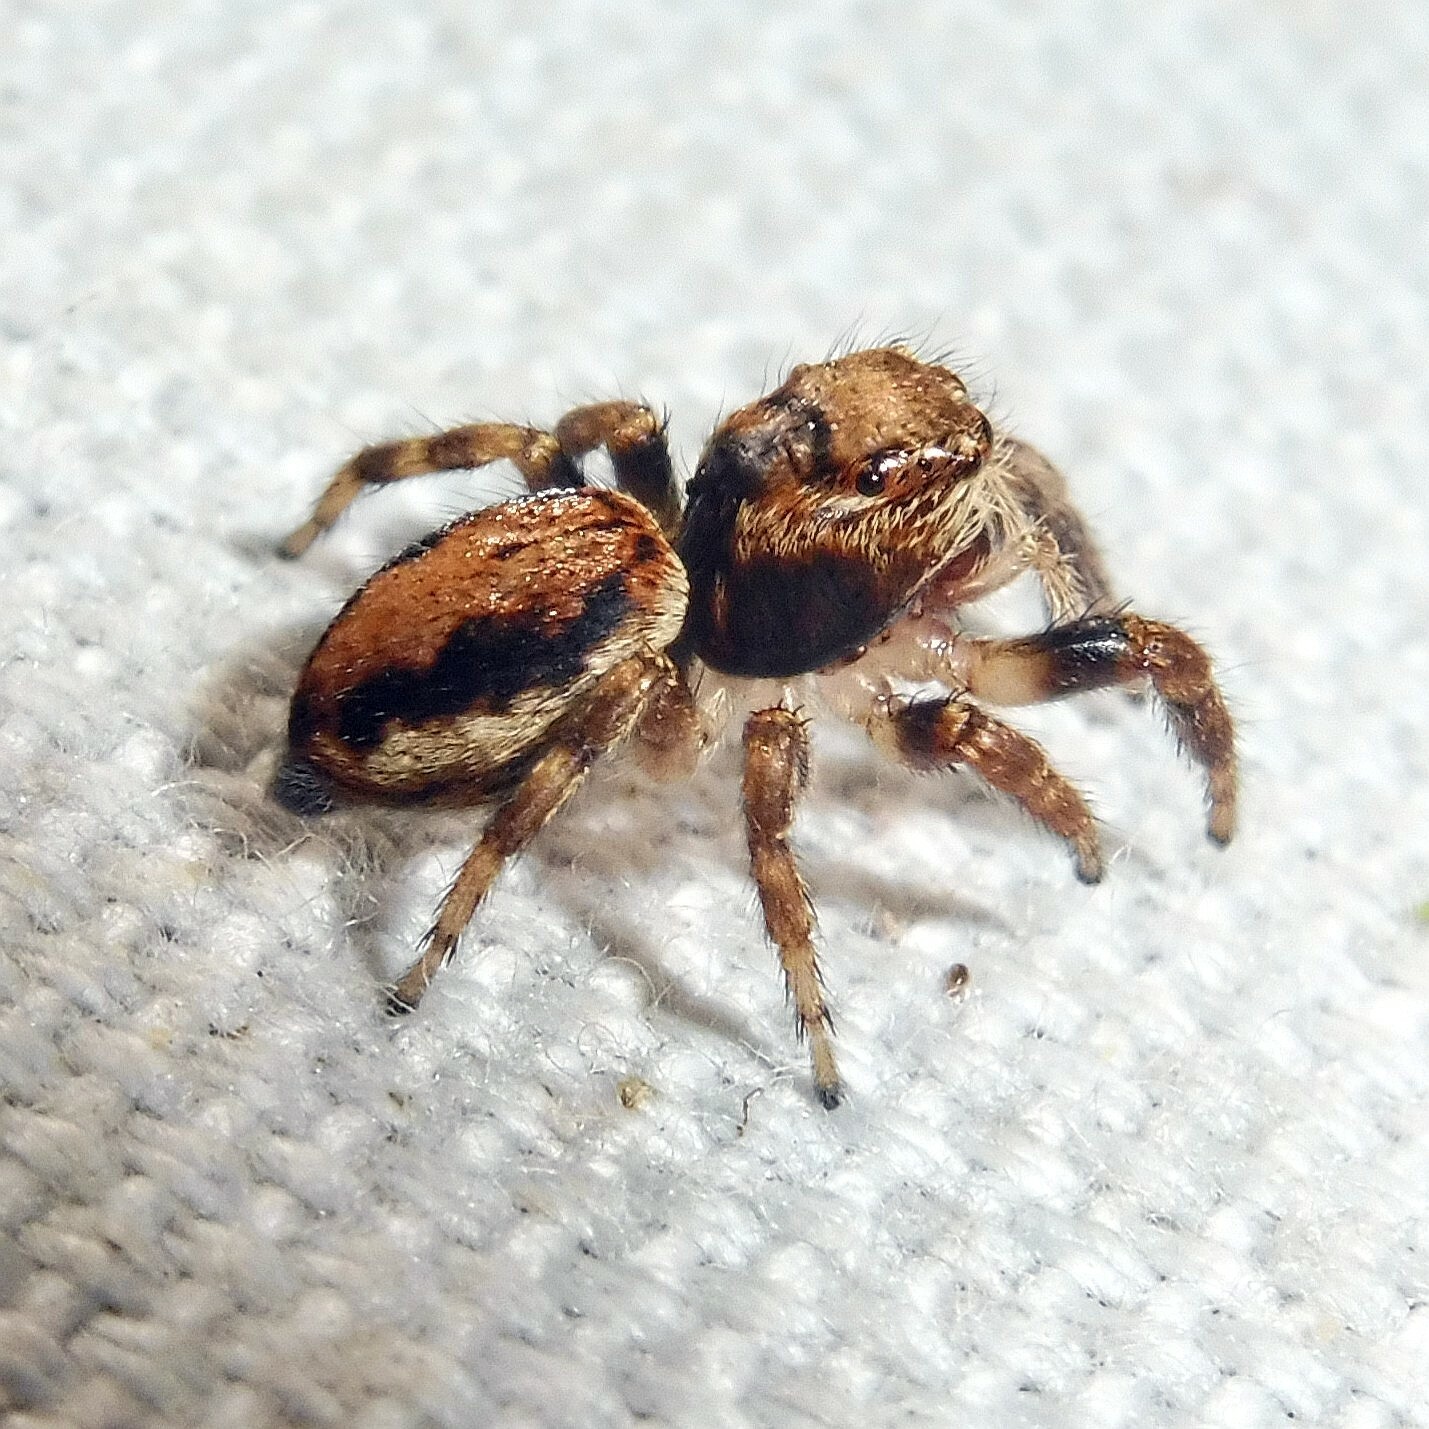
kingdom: Animalia
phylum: Arthropoda
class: Arachnida
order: Araneae
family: Salticidae
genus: Evarcha
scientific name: Evarcha falcata
